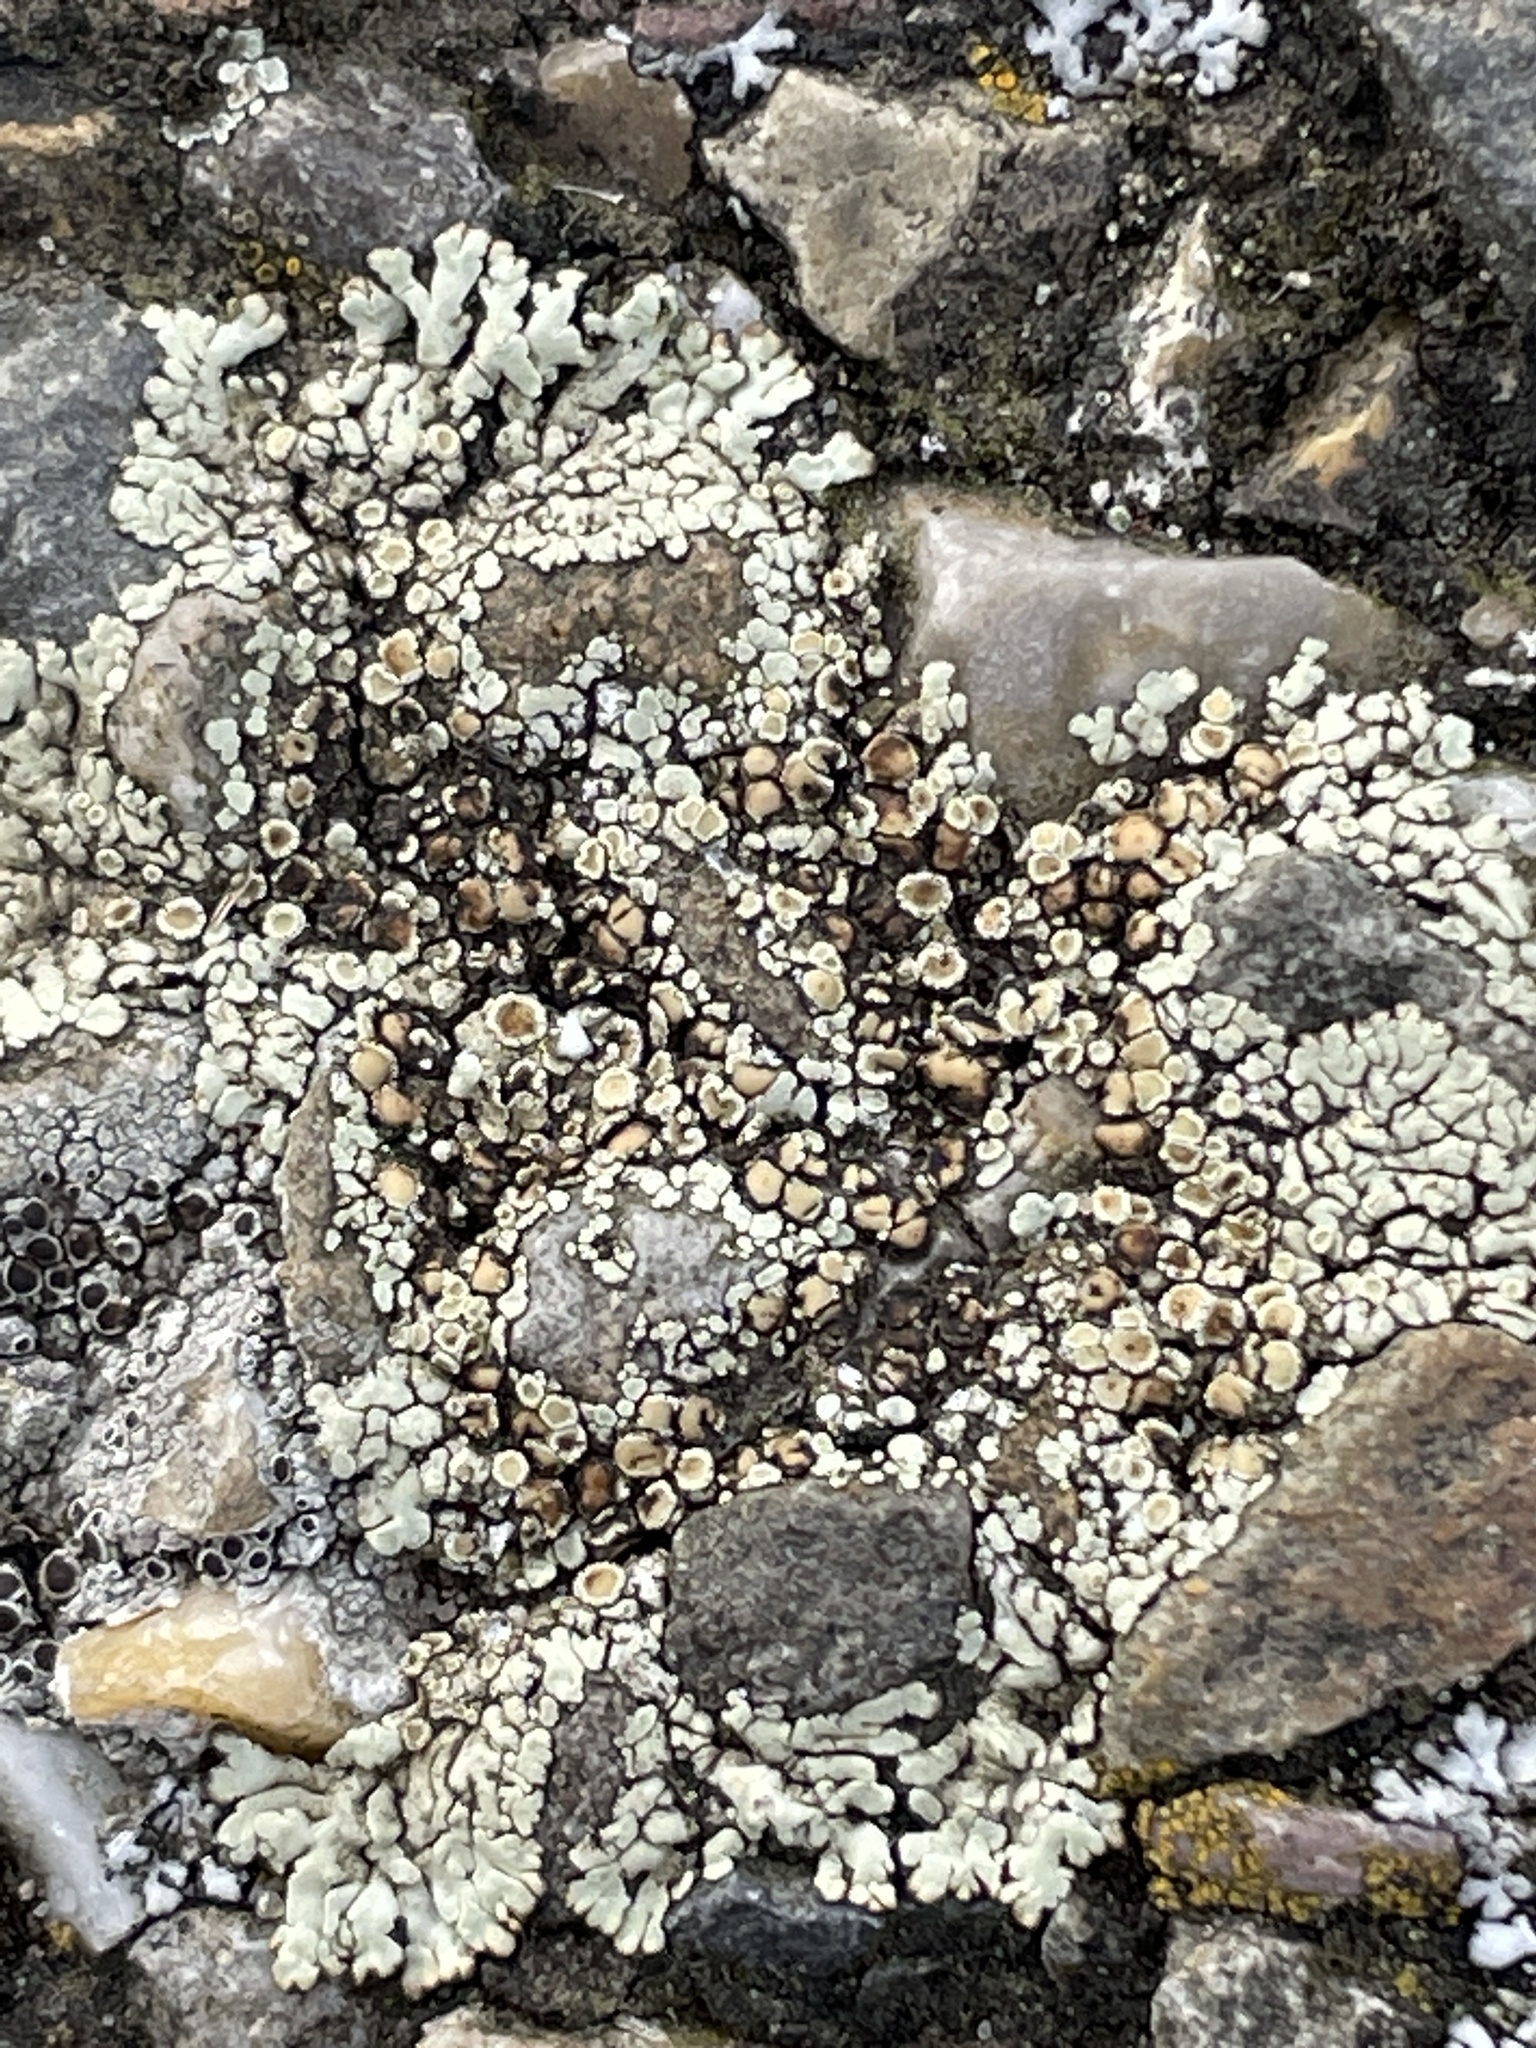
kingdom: Fungi
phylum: Ascomycota
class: Lecanoromycetes
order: Lecanorales
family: Lecanoraceae
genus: Protoparmeliopsis
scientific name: Protoparmeliopsis muralis
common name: Stonewall rim lichen
